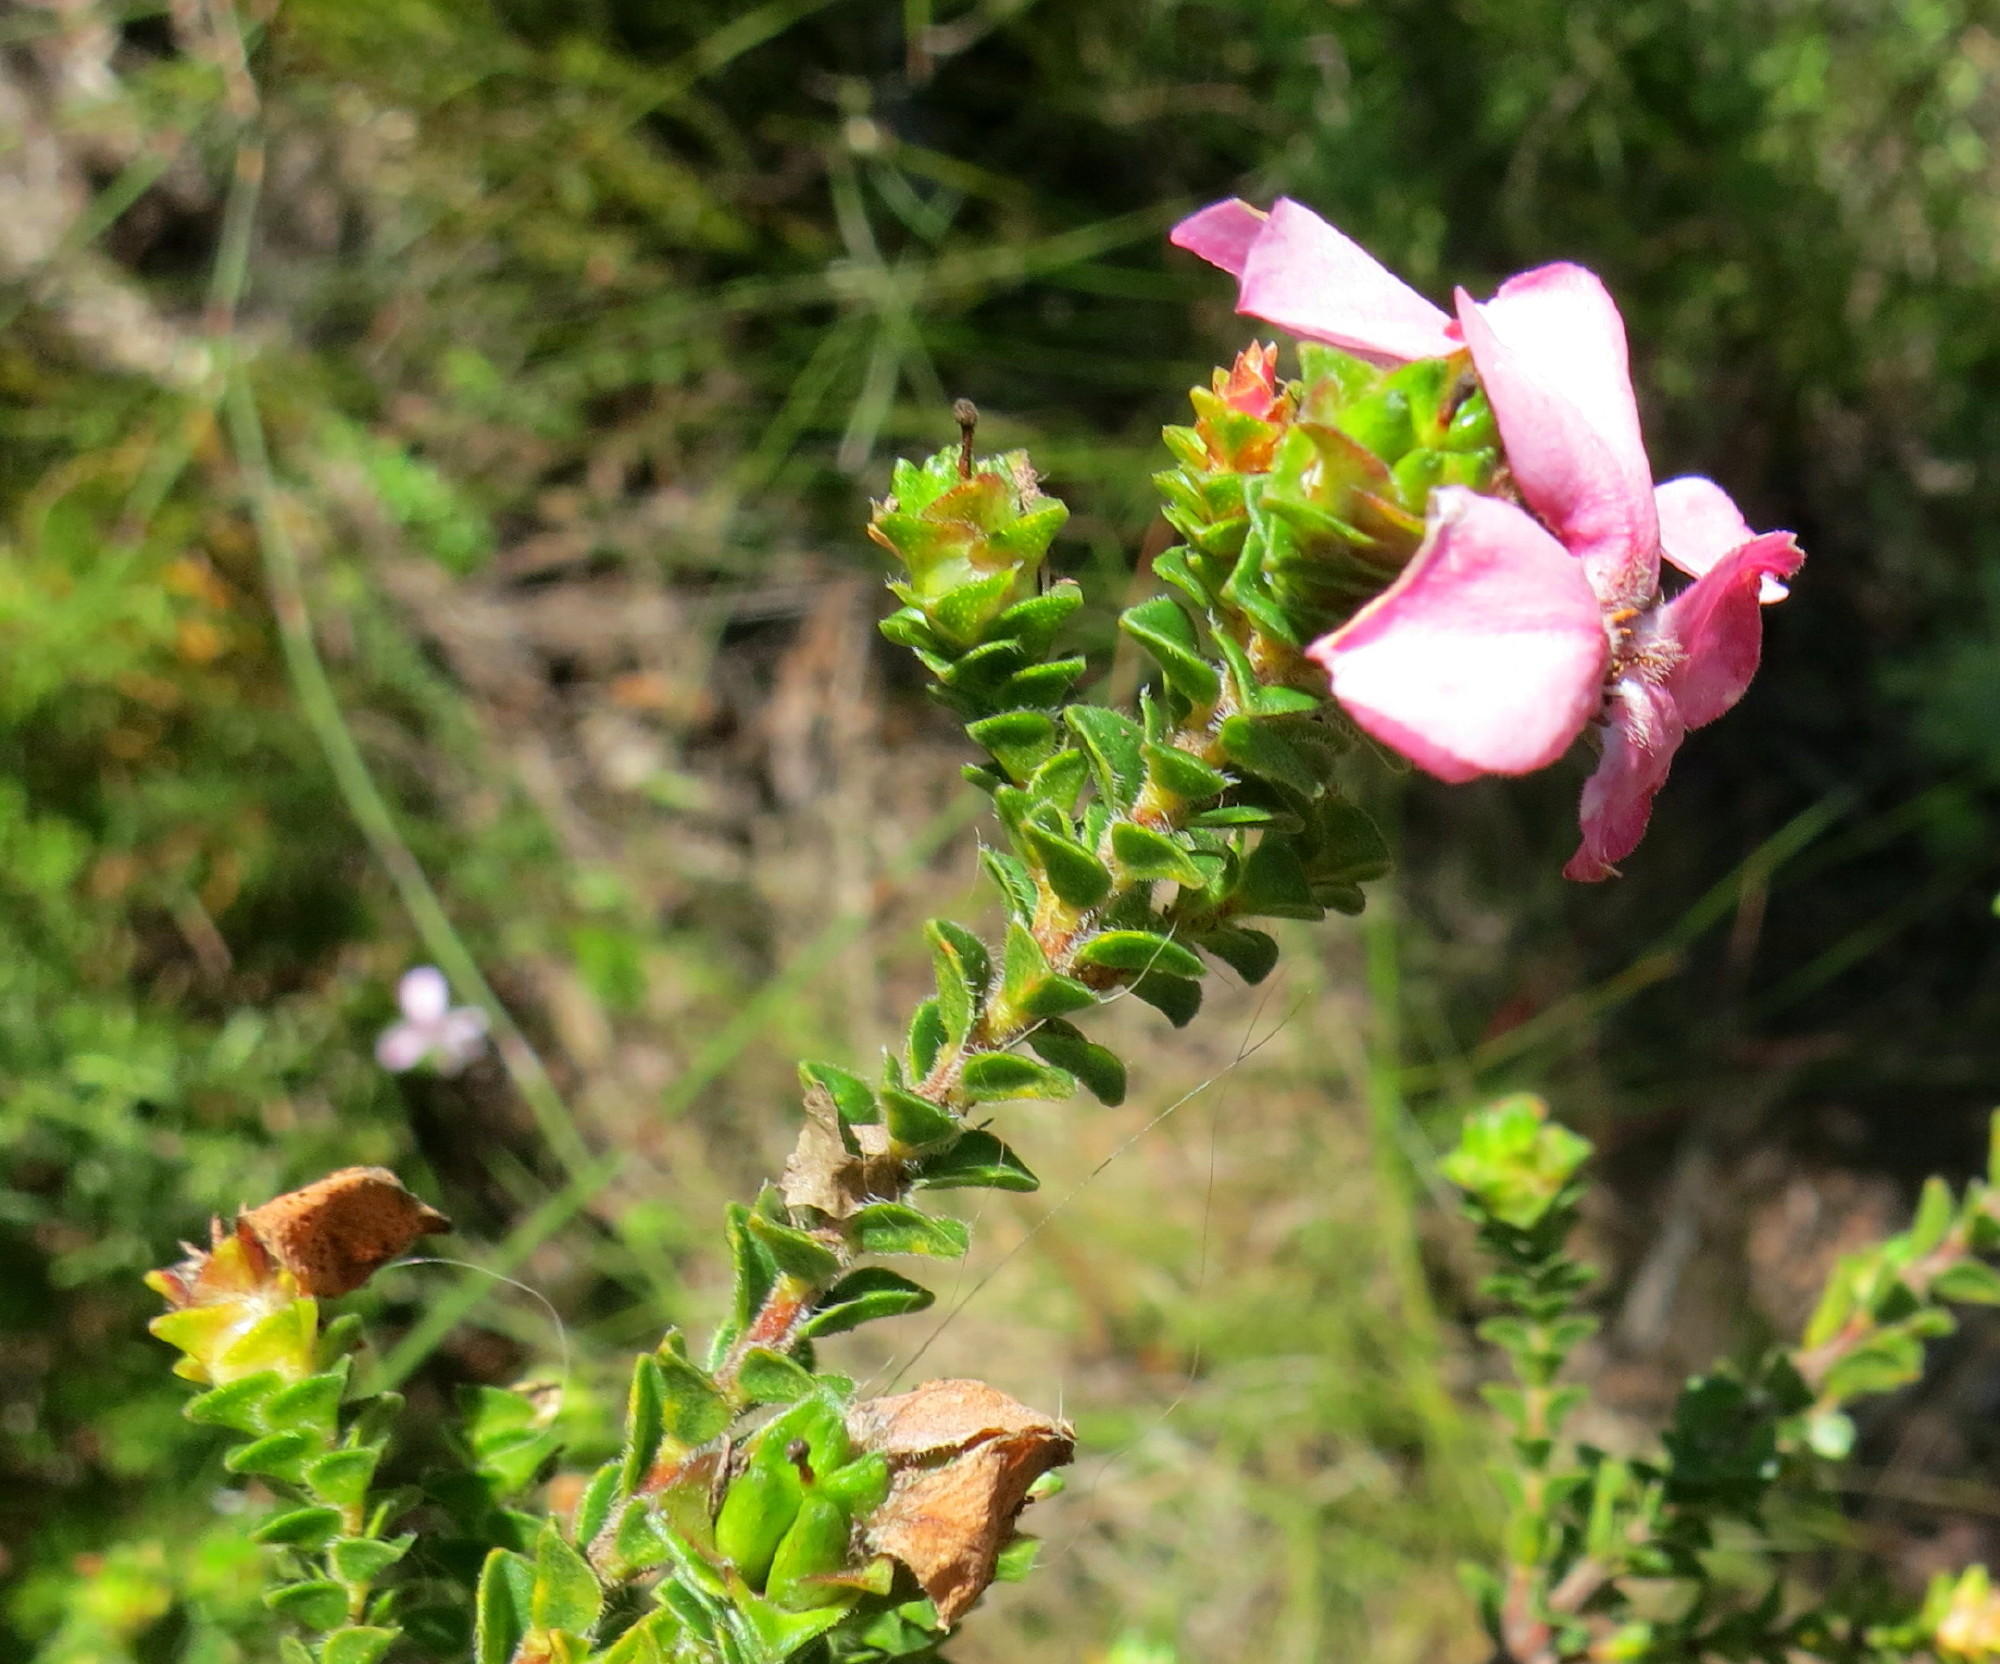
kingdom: Plantae
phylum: Tracheophyta
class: Magnoliopsida
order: Sapindales
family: Rutaceae
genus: Acmadenia
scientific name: Acmadenia tetragona
